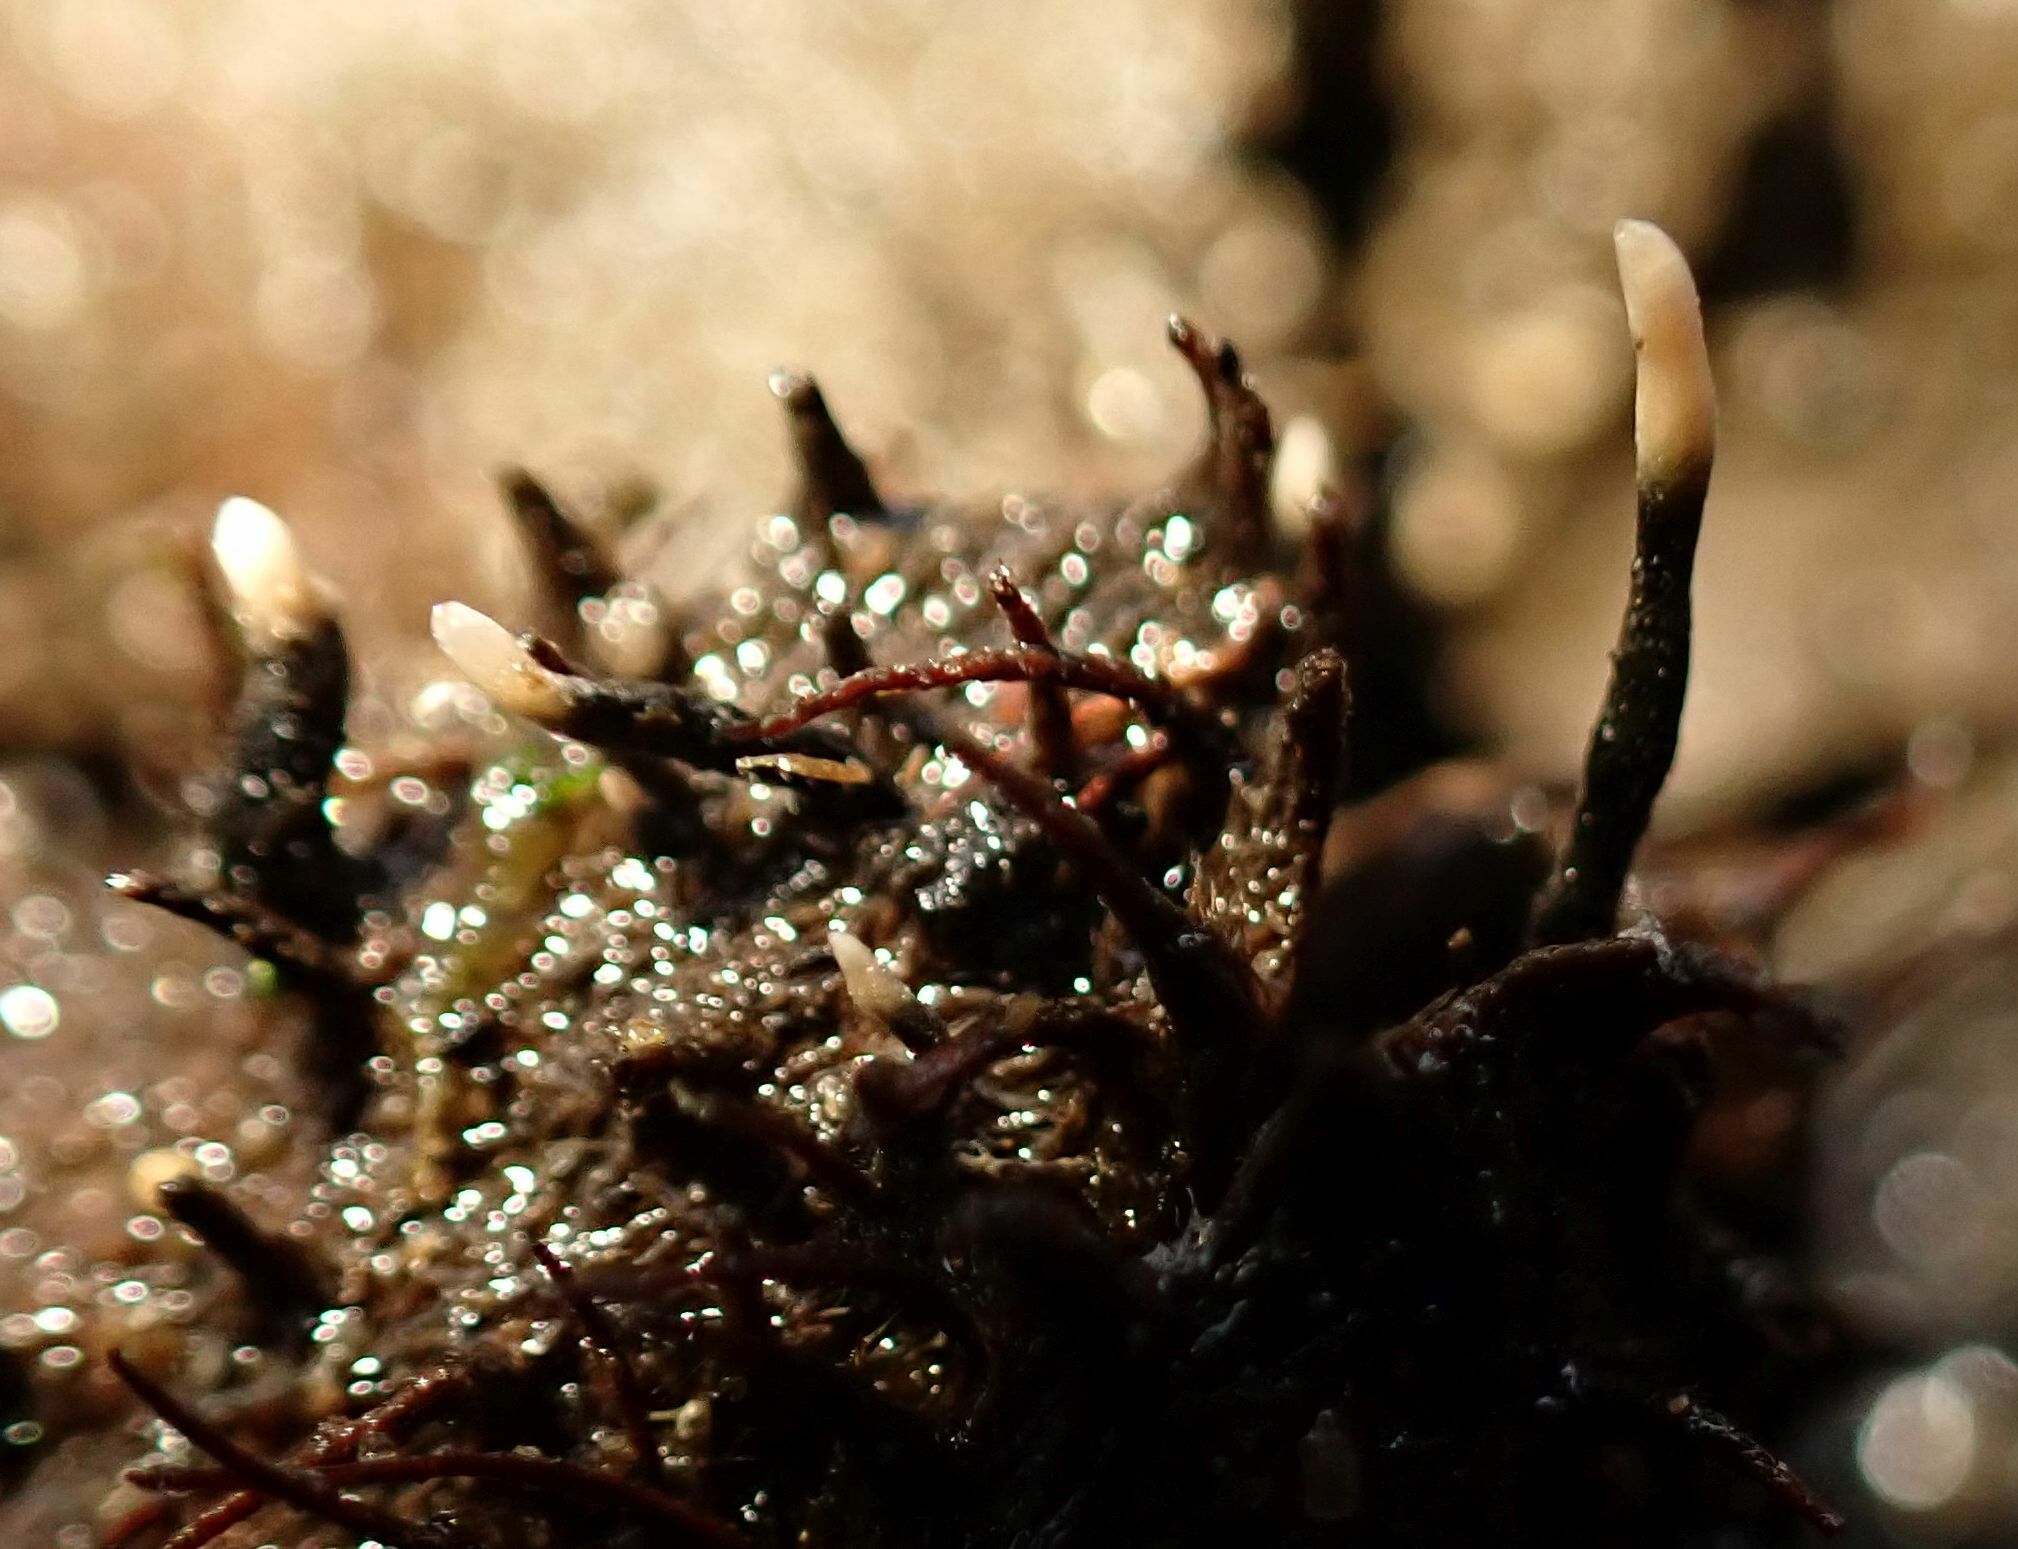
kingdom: Fungi
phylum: Ascomycota
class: Sordariomycetes
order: Xylariales
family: Xylariaceae
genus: Xylaria
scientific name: Xylaria carpophila
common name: Beechmast candlesnuff
